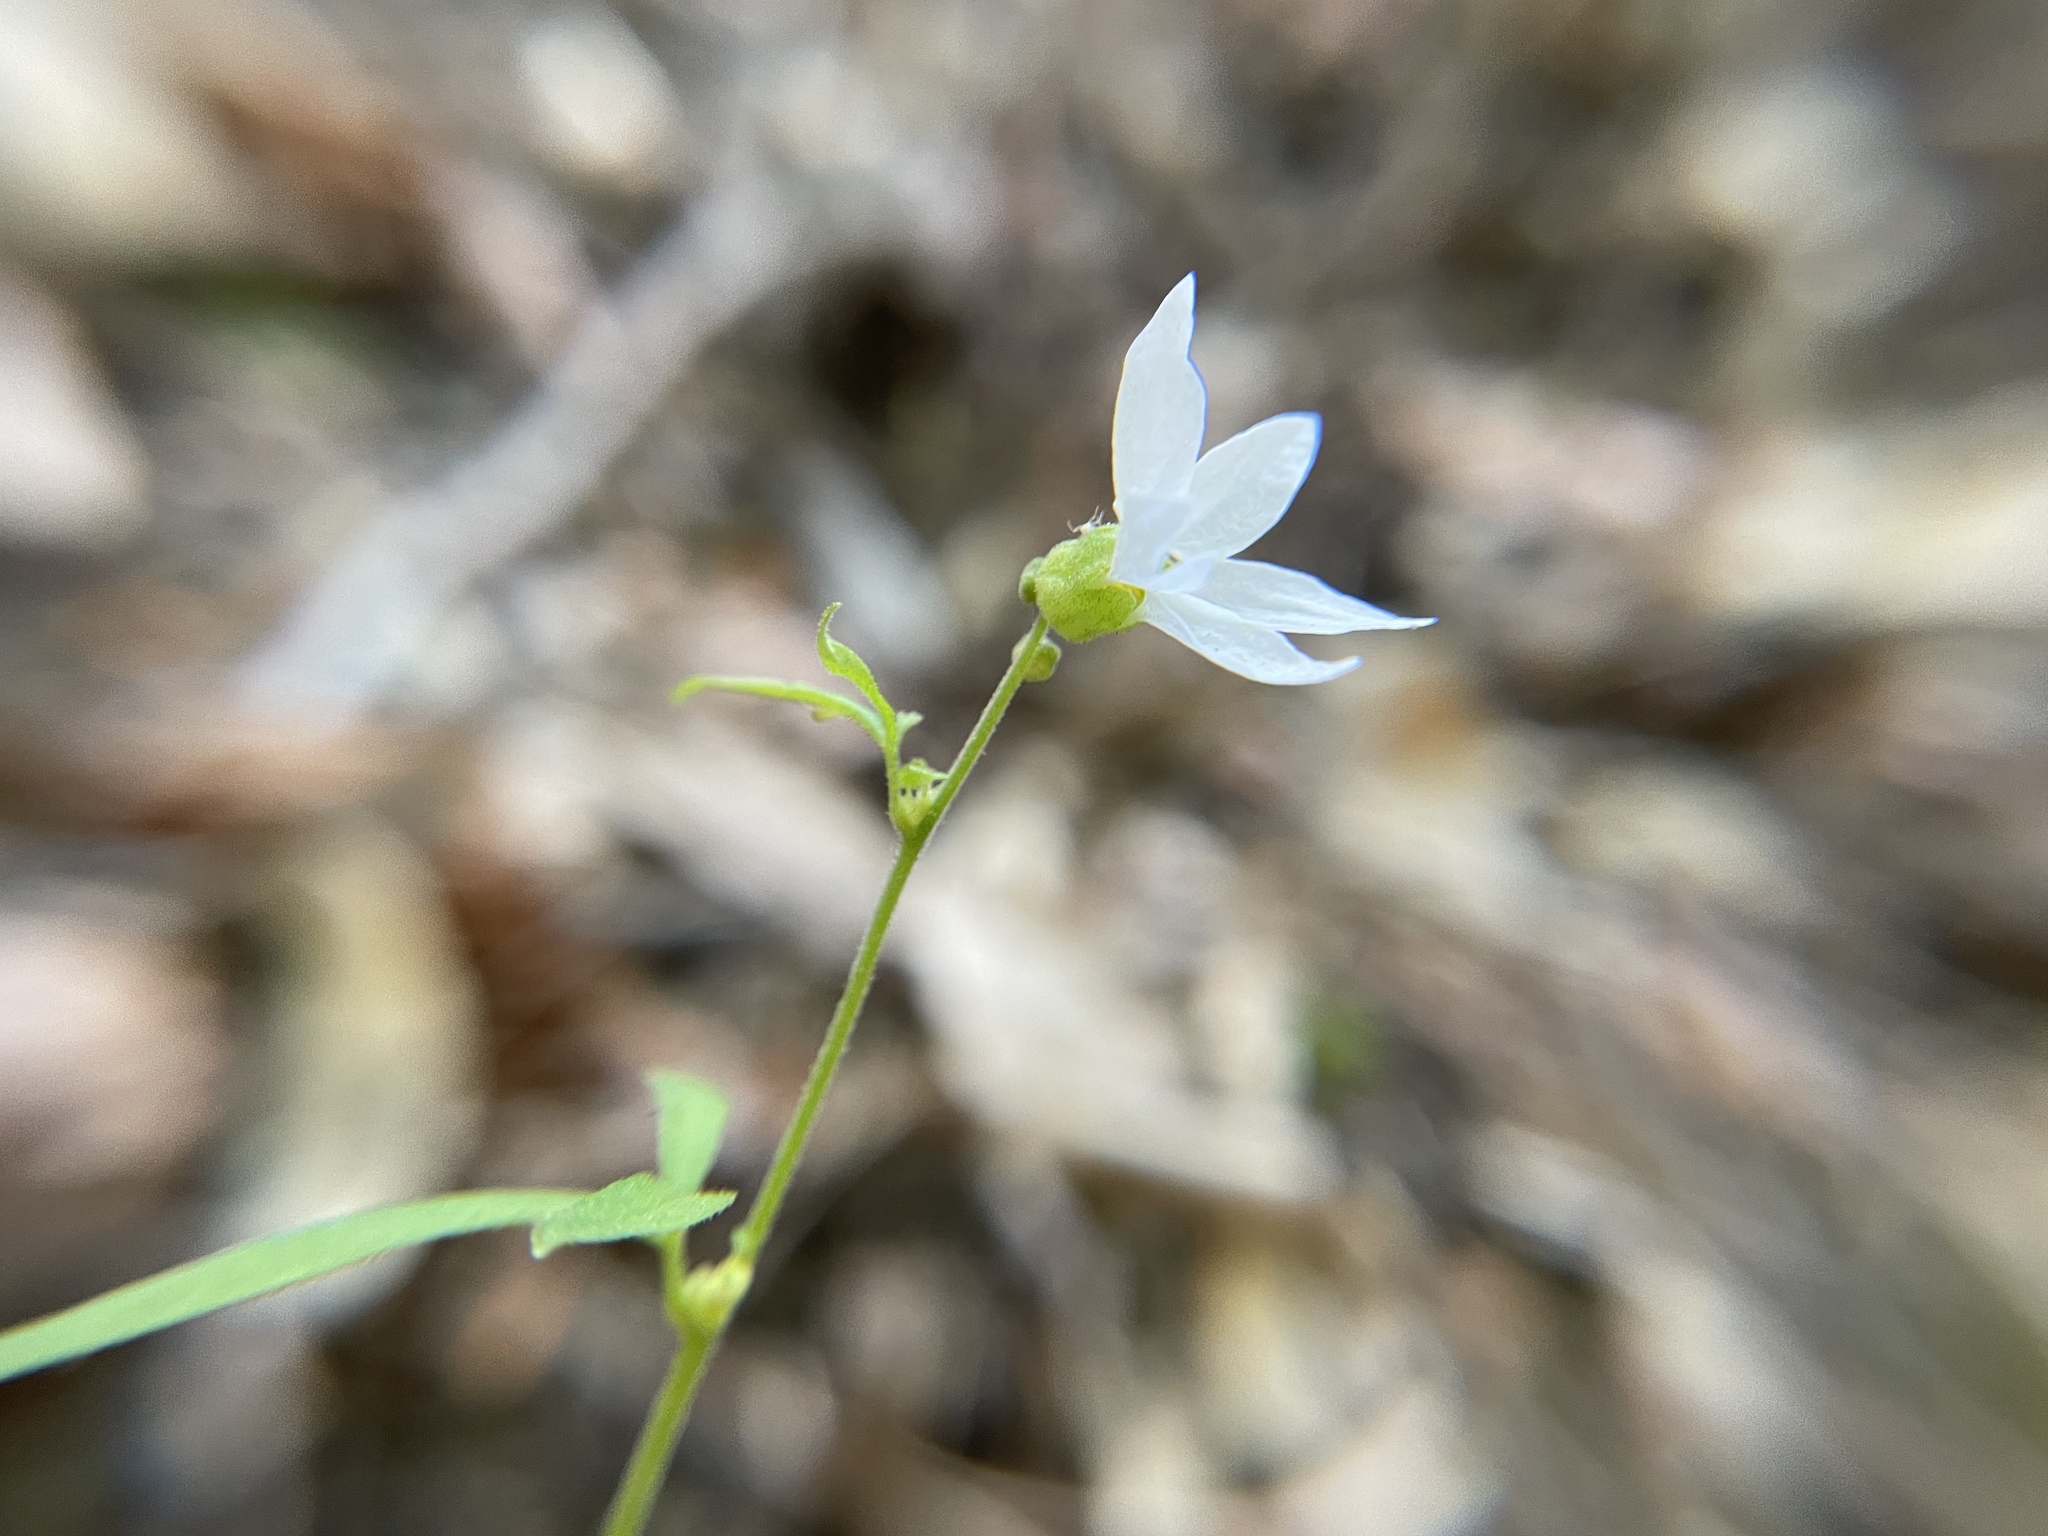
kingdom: Plantae
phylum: Tracheophyta
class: Magnoliopsida
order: Saxifragales
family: Saxifragaceae
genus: Lithophragma
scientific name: Lithophragma heterophyllum
